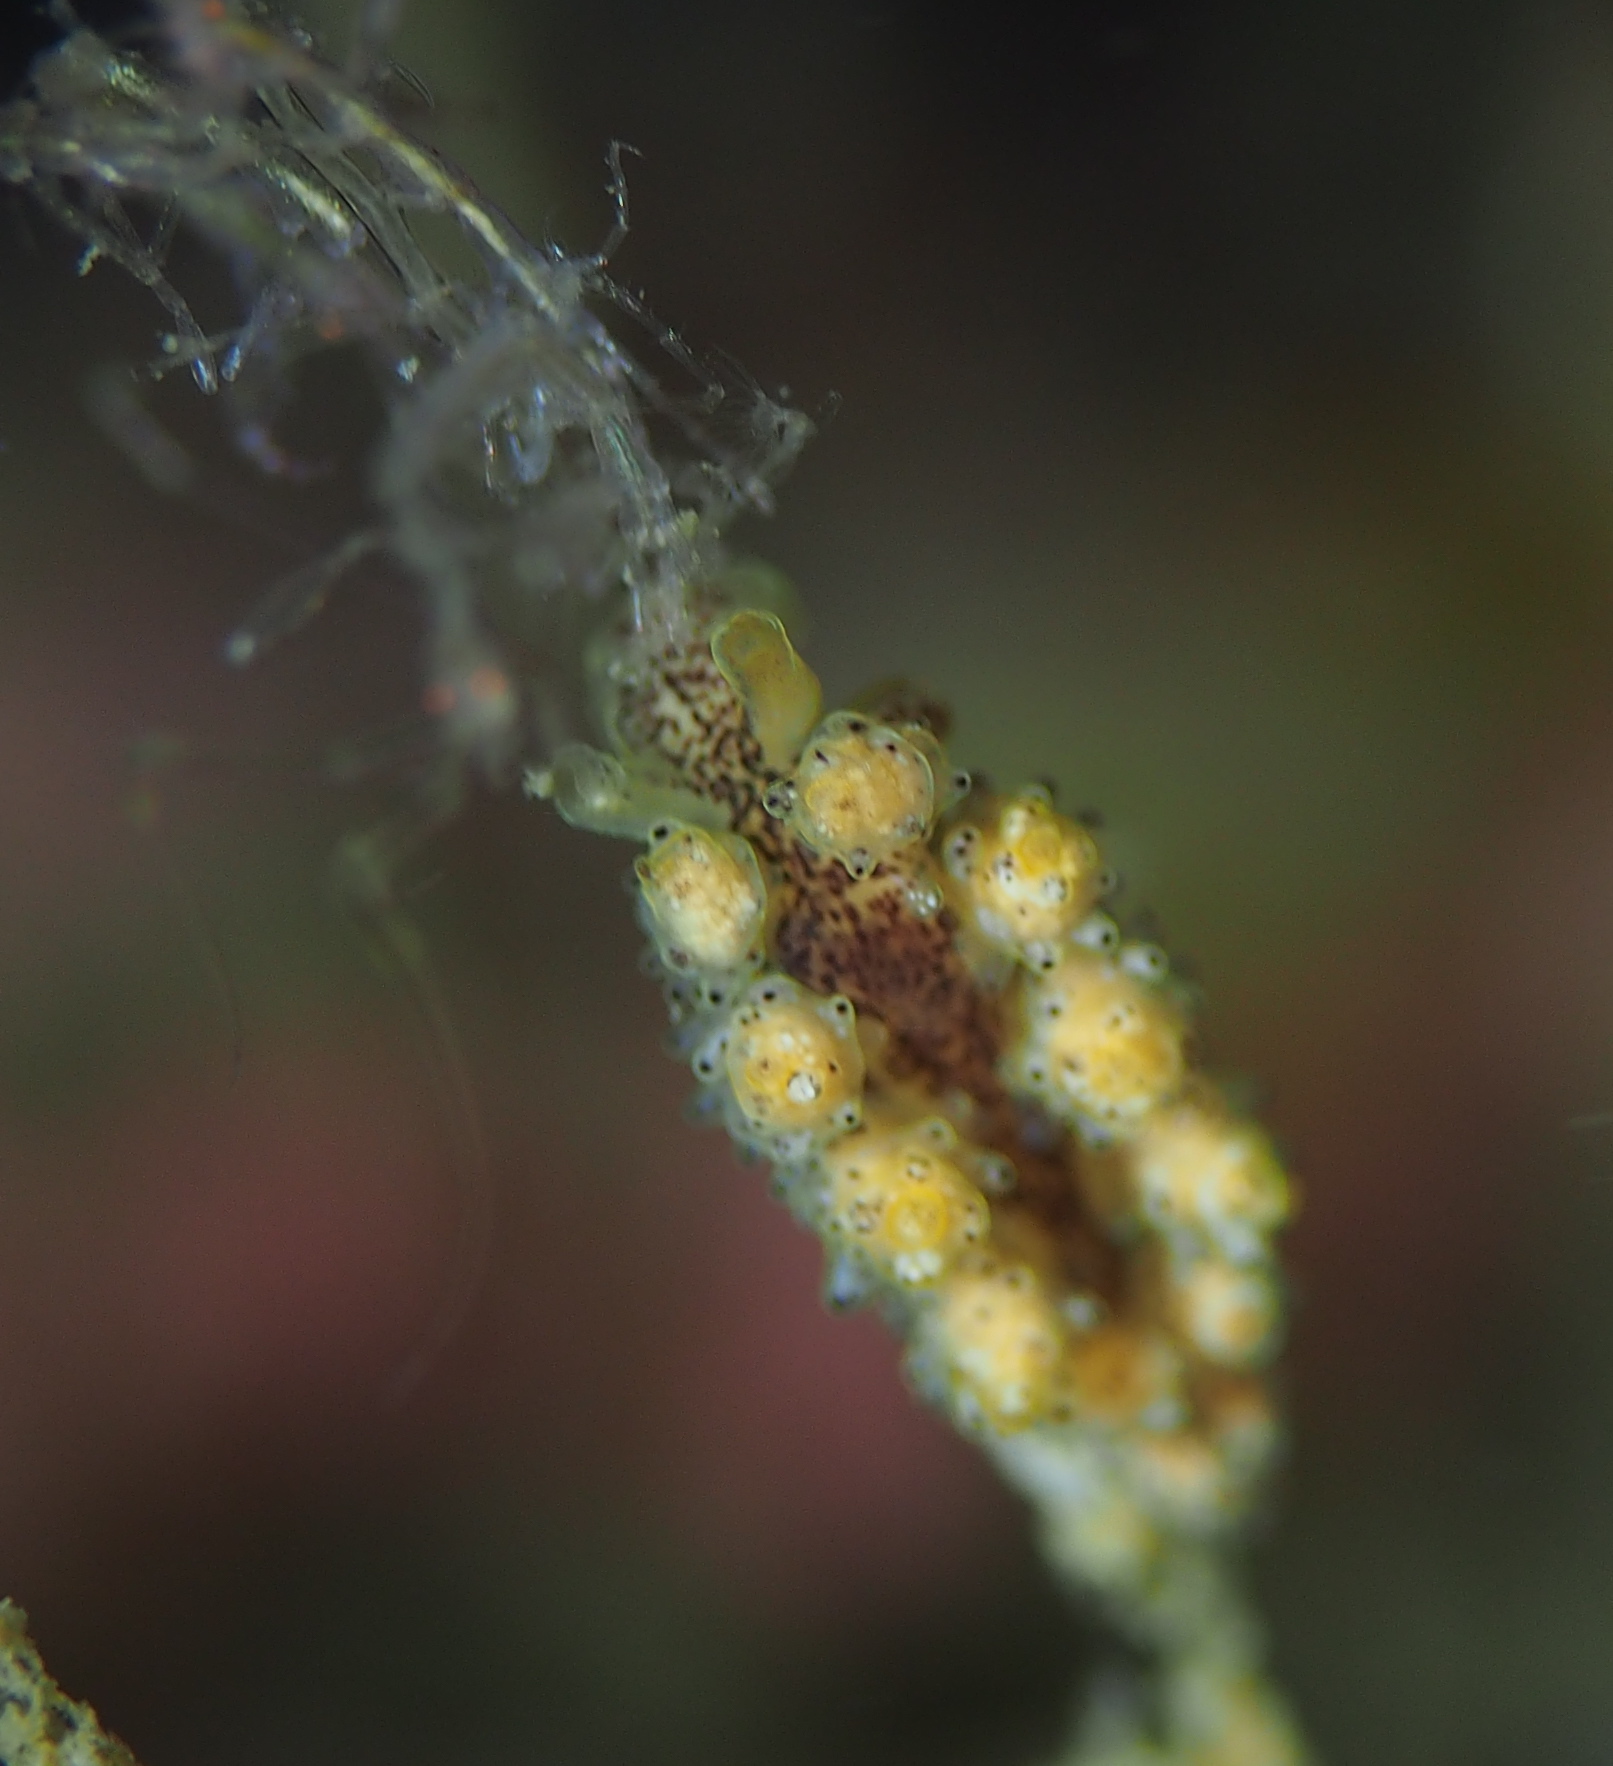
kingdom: Animalia
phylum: Mollusca
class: Gastropoda
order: Nudibranchia
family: Dotidae
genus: Doto
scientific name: Doto dunnei
